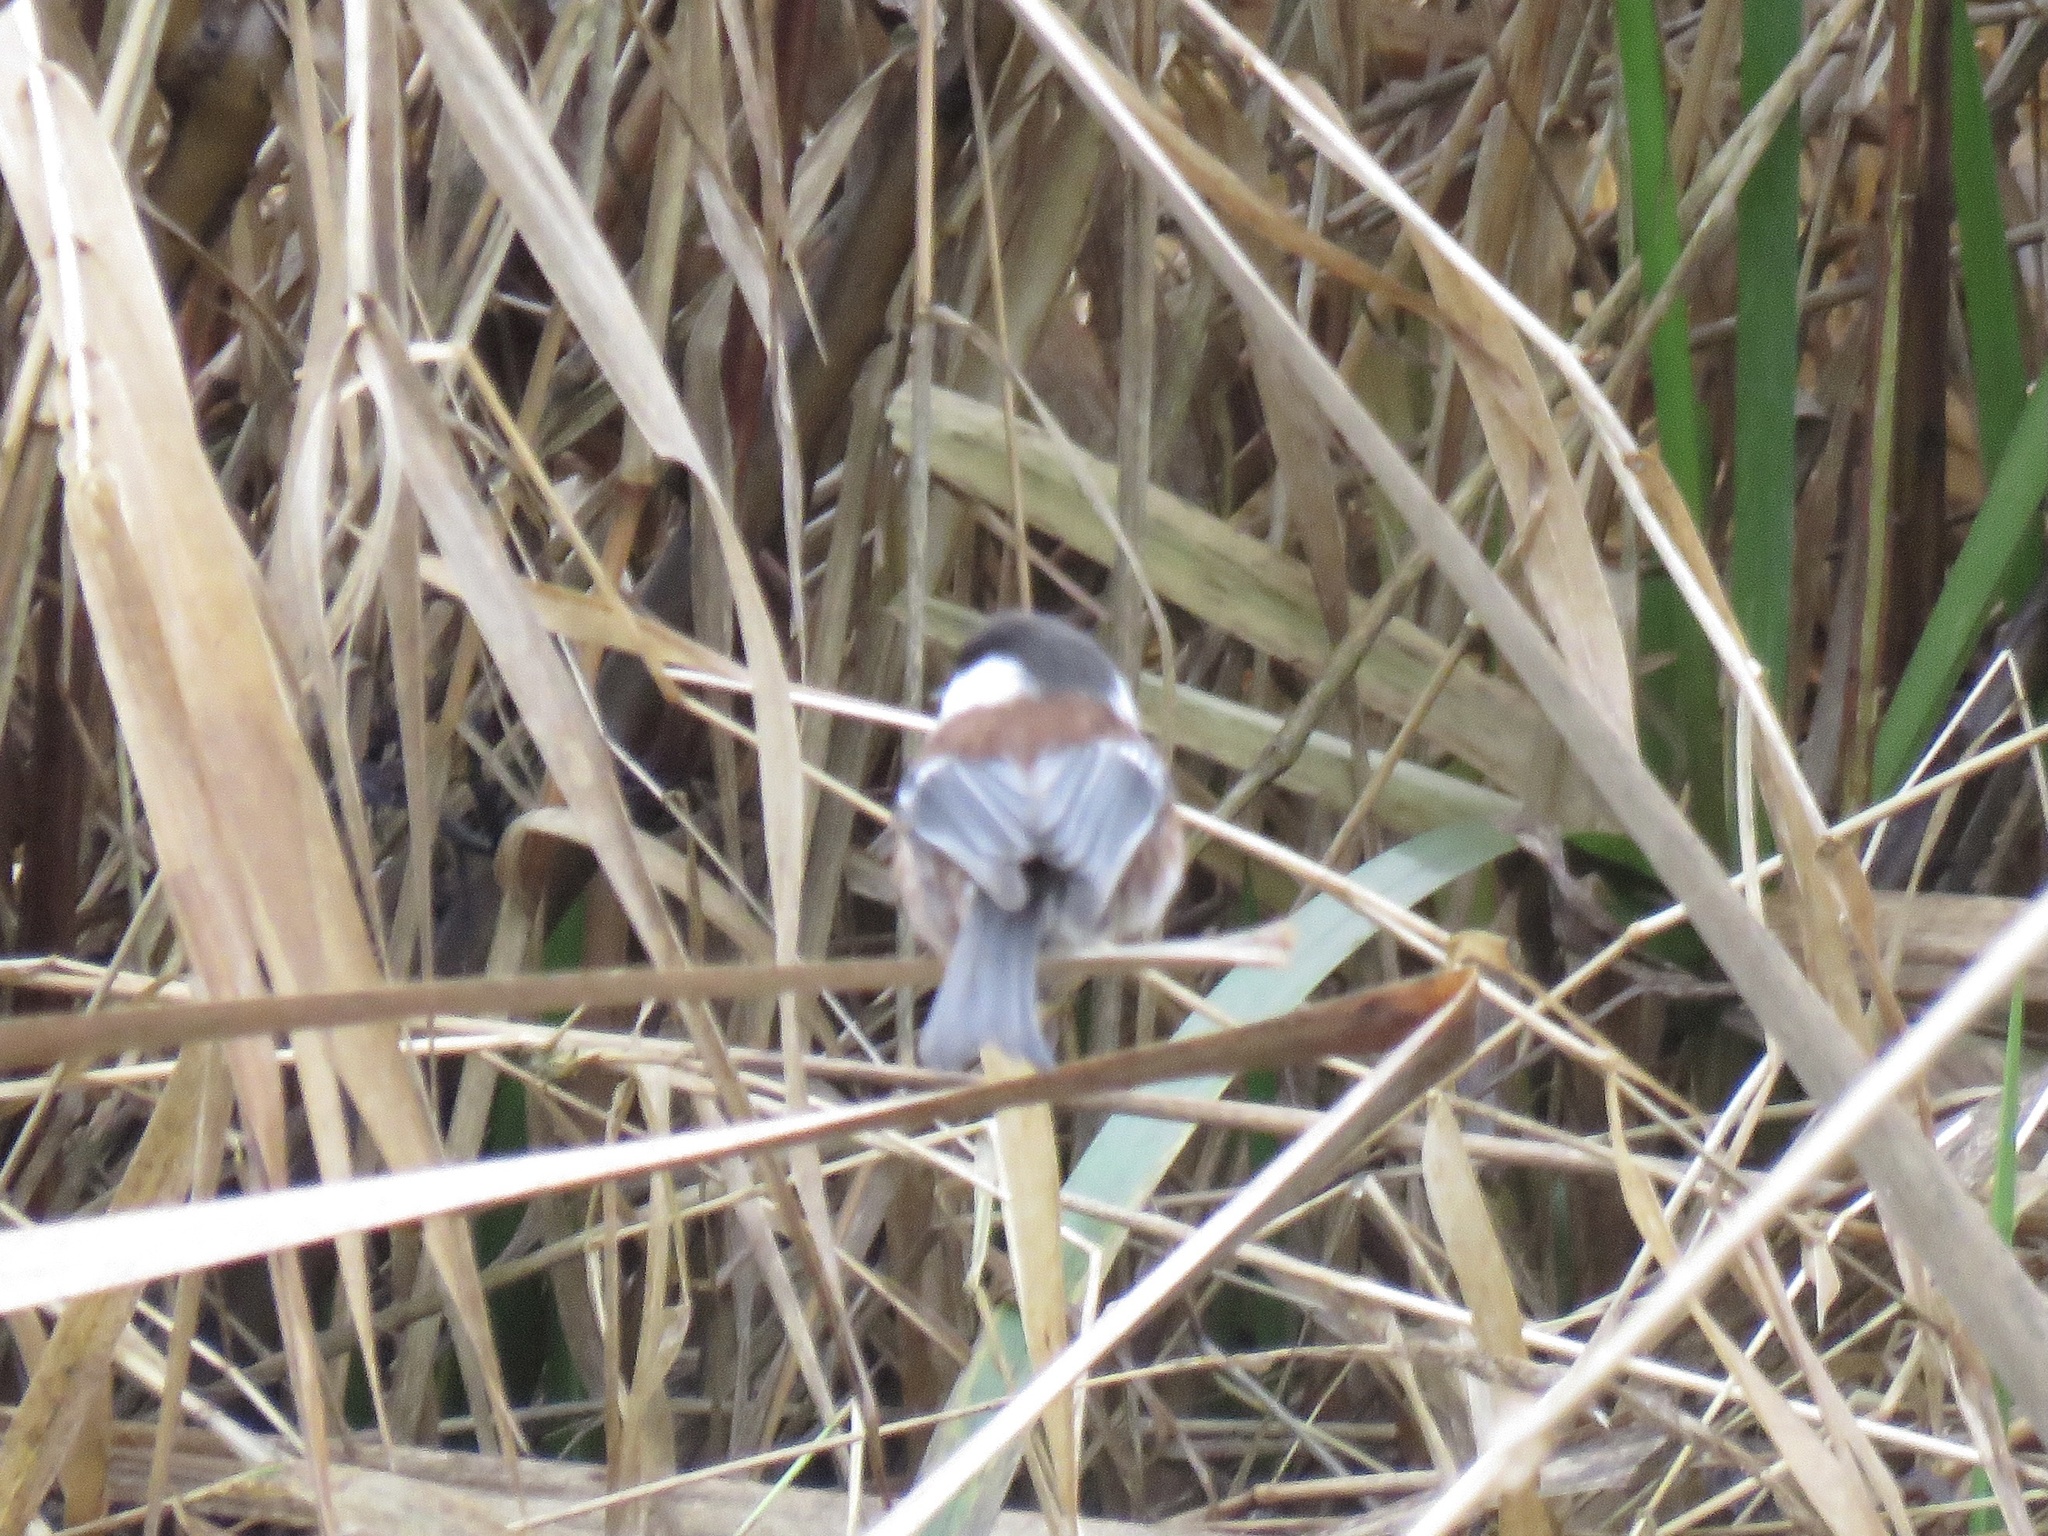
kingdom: Animalia
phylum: Chordata
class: Aves
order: Passeriformes
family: Paridae
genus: Poecile
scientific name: Poecile rufescens
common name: Chestnut-backed chickadee
